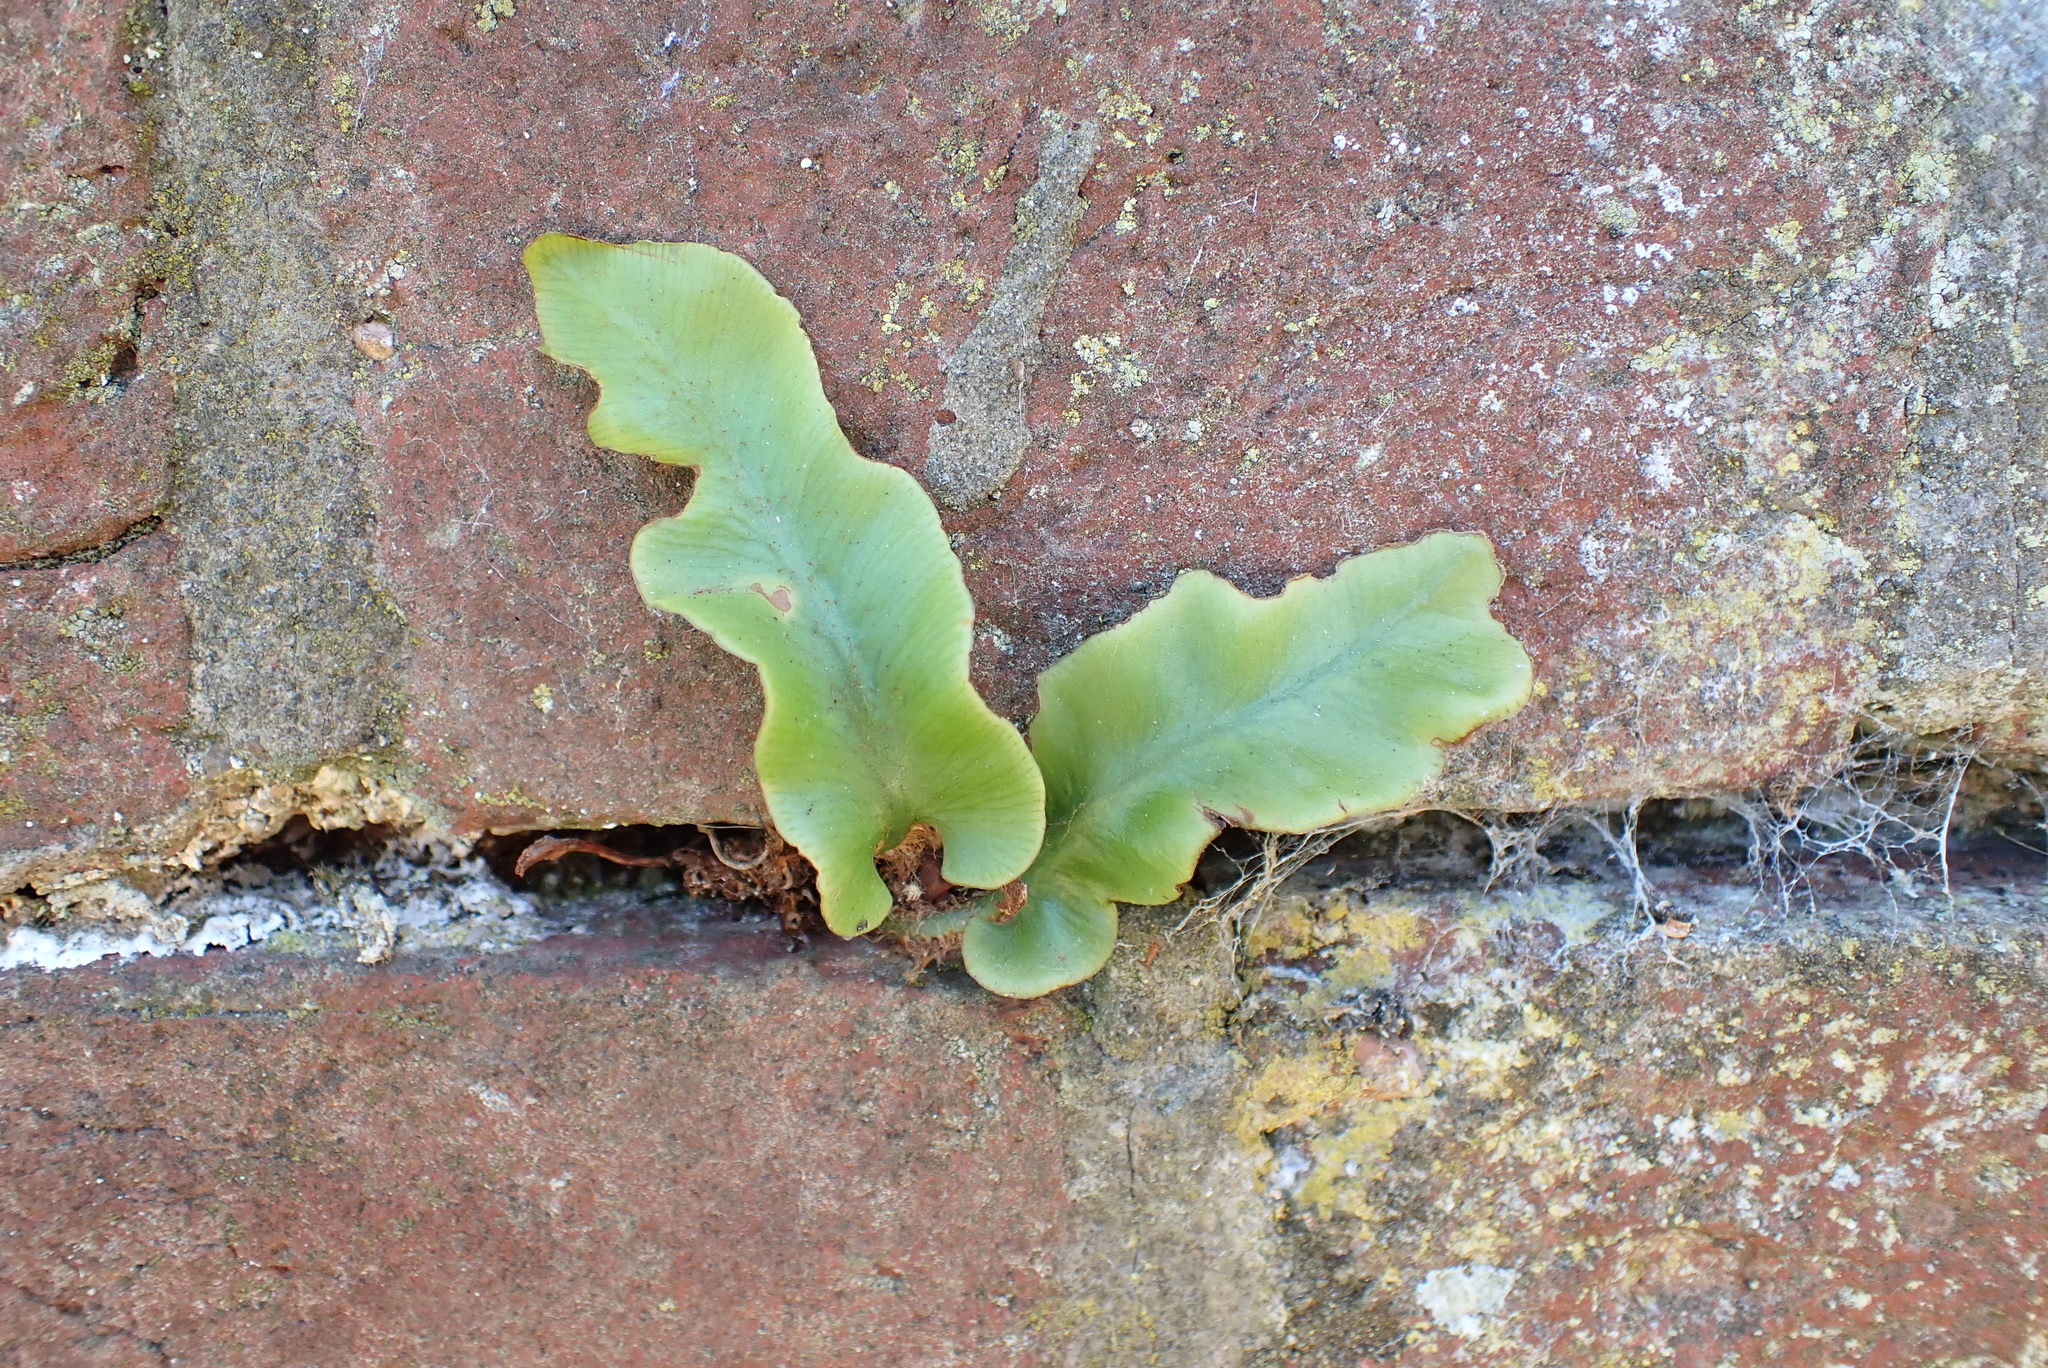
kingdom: Plantae
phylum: Tracheophyta
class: Polypodiopsida
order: Polypodiales
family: Aspleniaceae
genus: Asplenium
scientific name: Asplenium scolopendrium
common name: Hart's-tongue fern
